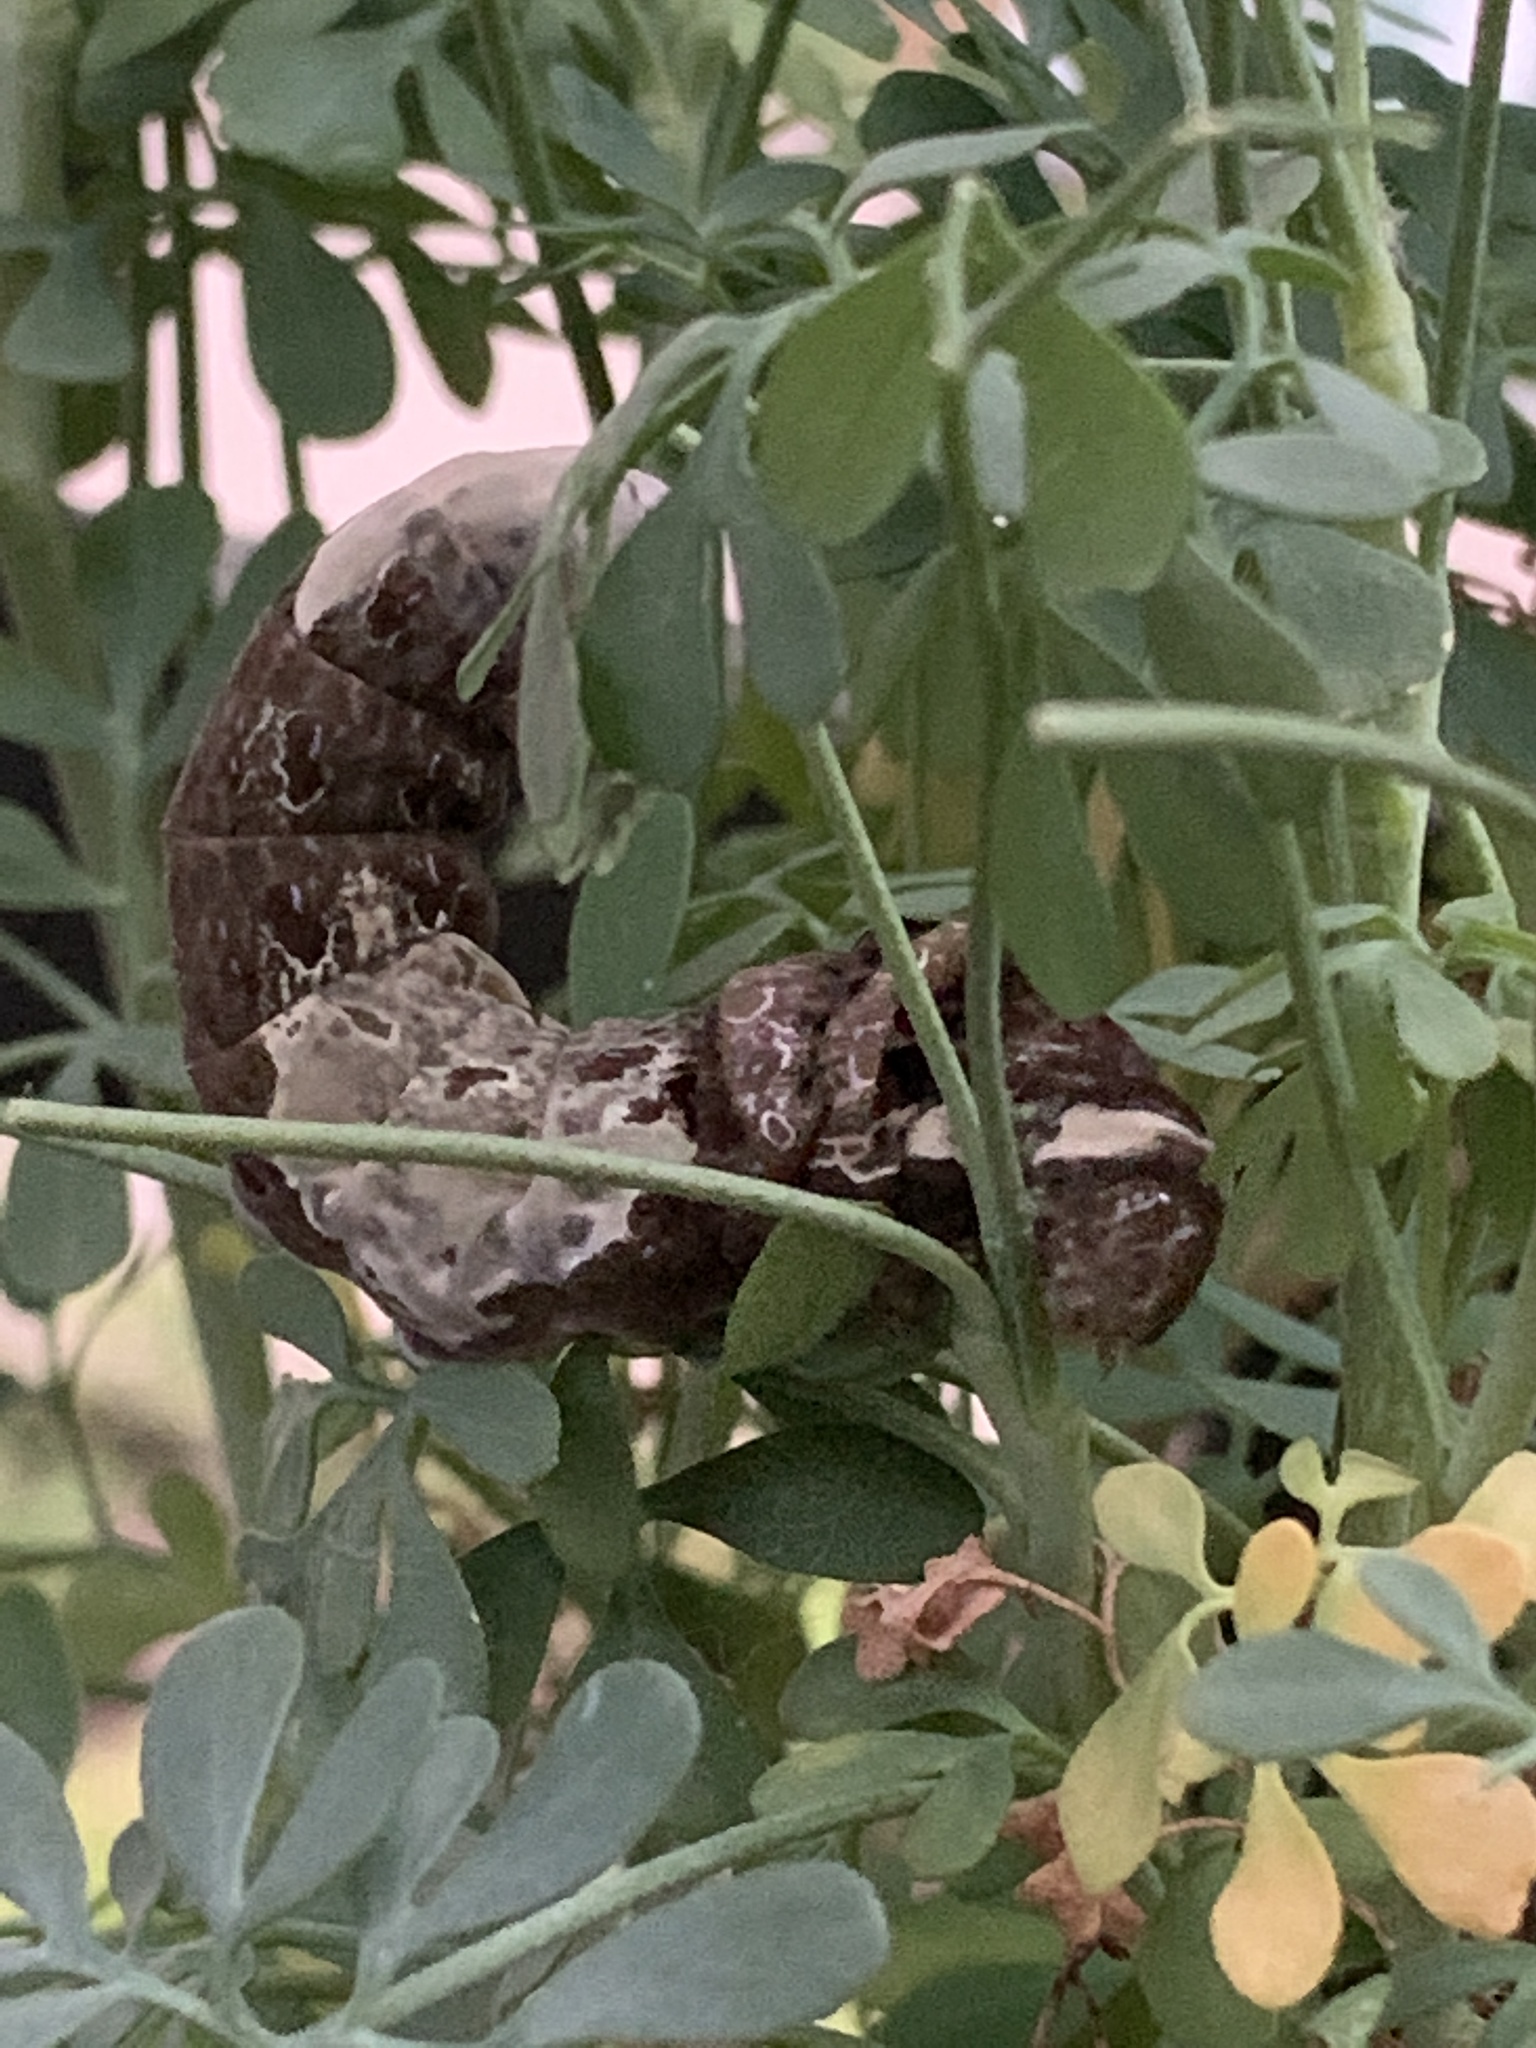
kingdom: Animalia
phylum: Arthropoda
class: Insecta
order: Lepidoptera
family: Papilionidae
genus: Papilio
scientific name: Papilio cresphontes
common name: Giant swallowtail
